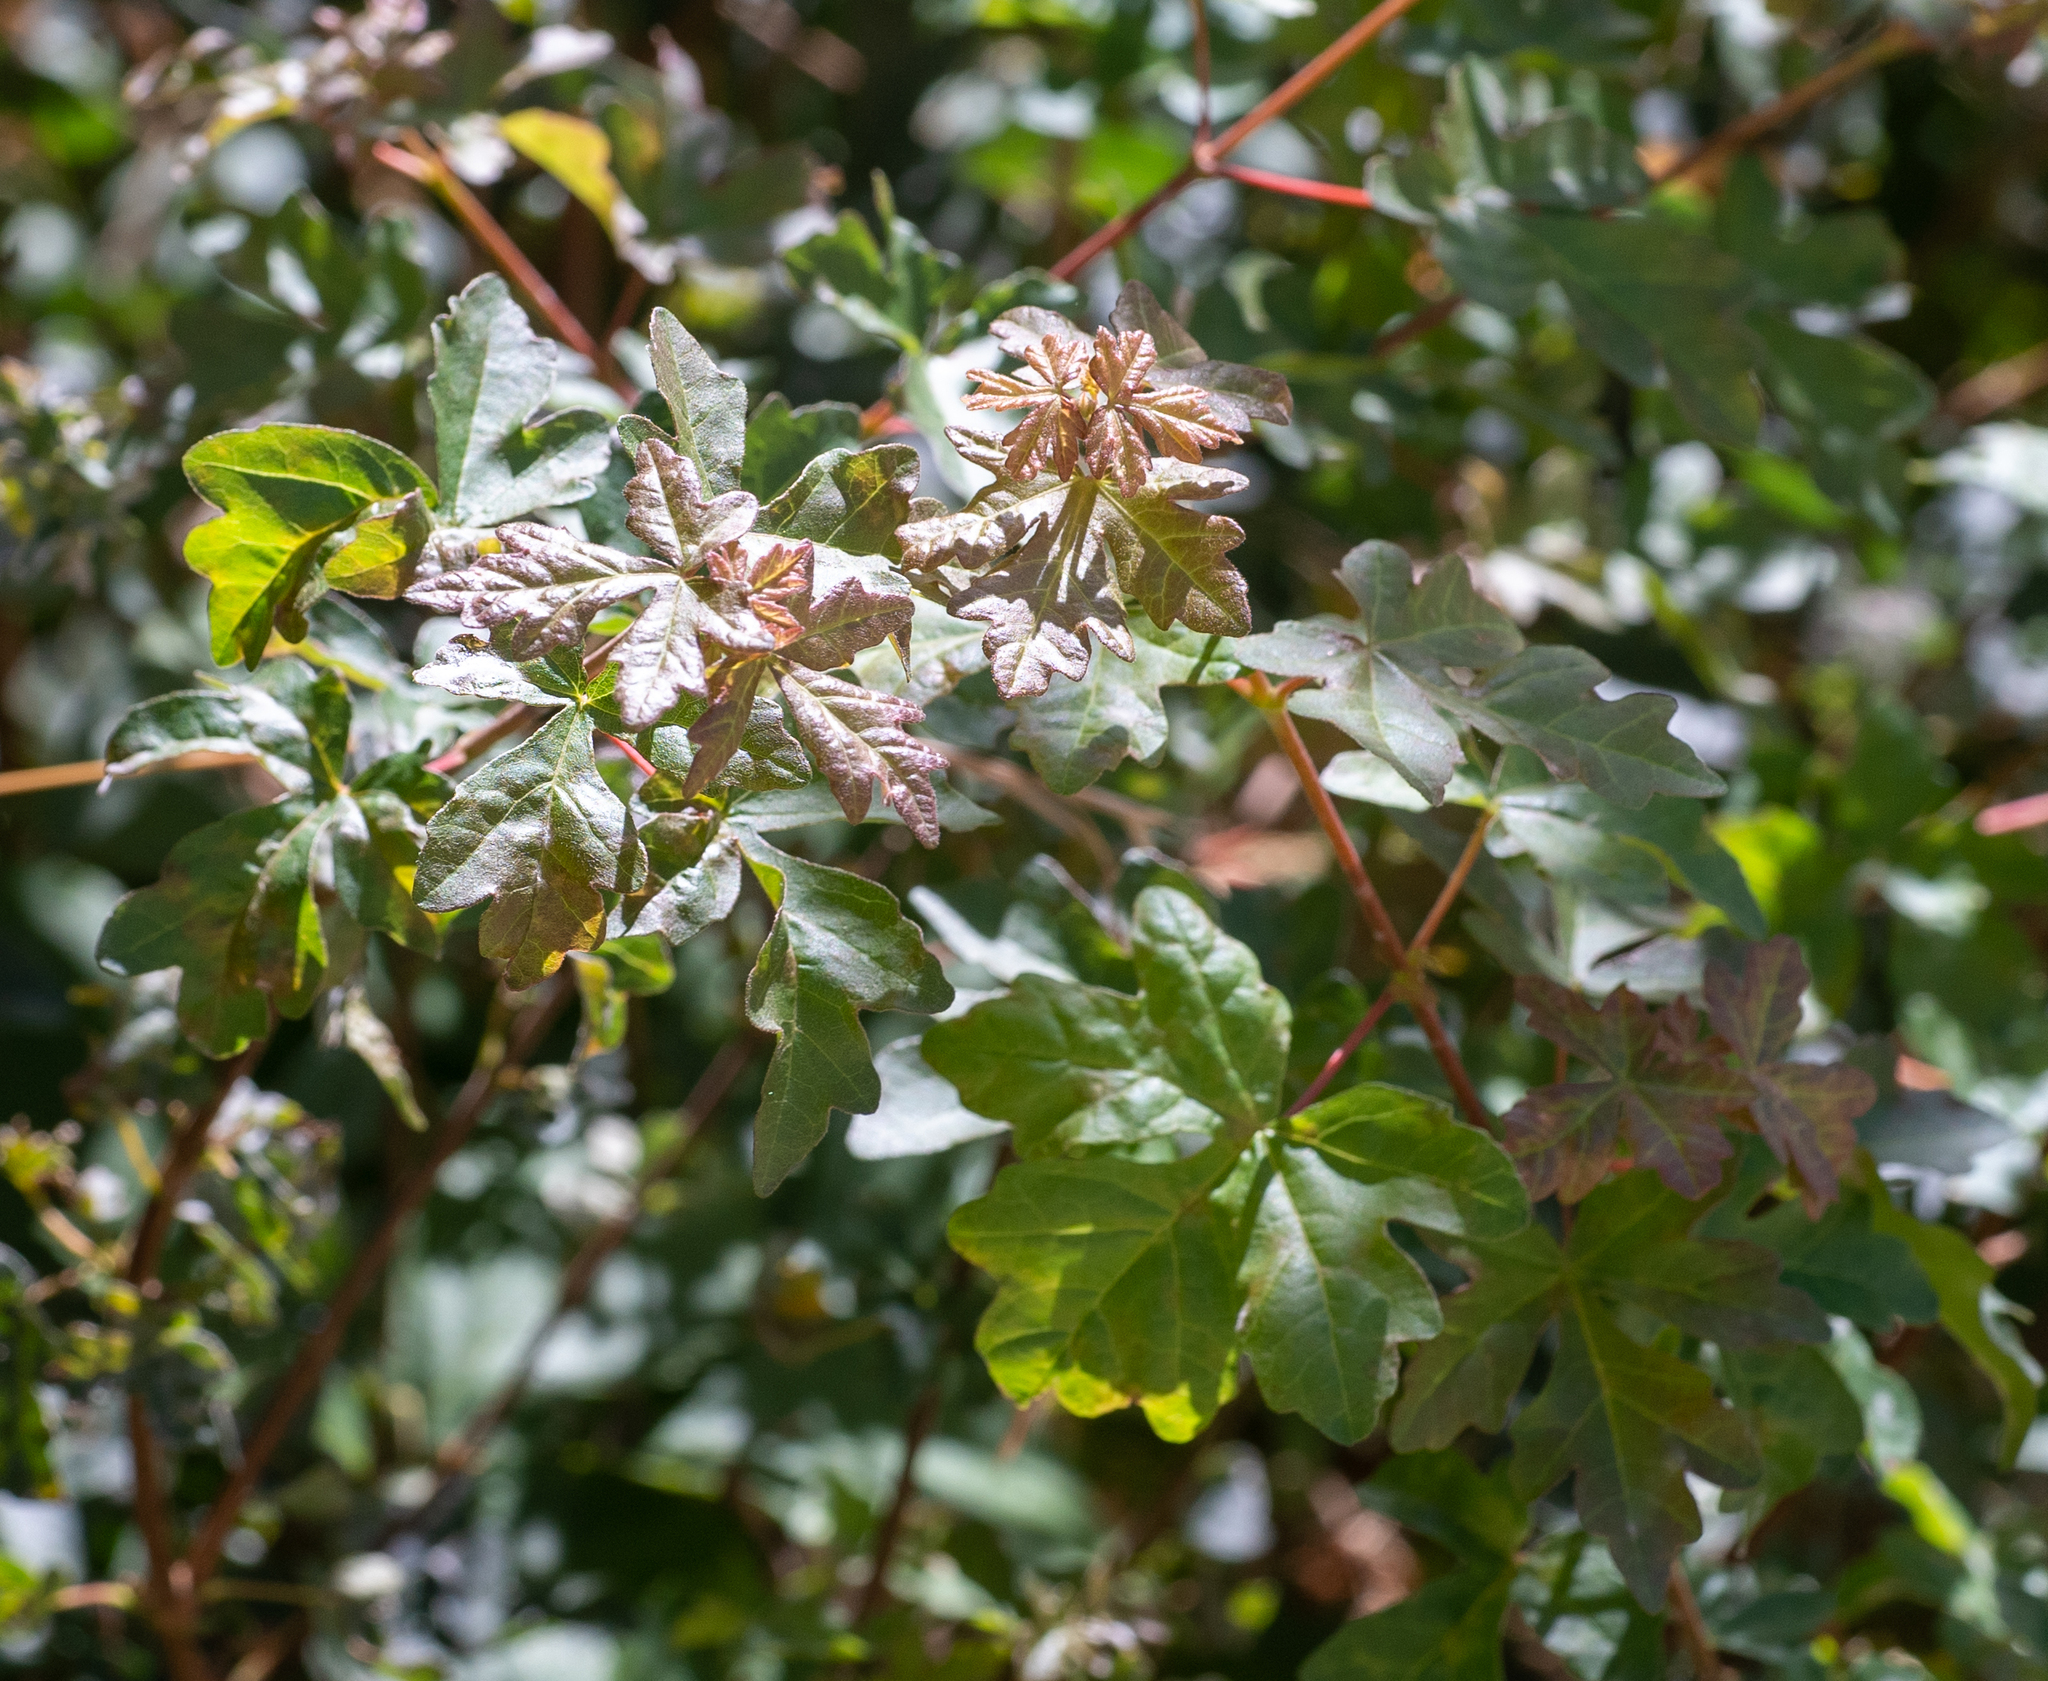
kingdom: Plantae
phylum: Tracheophyta
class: Magnoliopsida
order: Sapindales
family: Sapindaceae
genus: Acer
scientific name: Acer campestre
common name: Field maple
